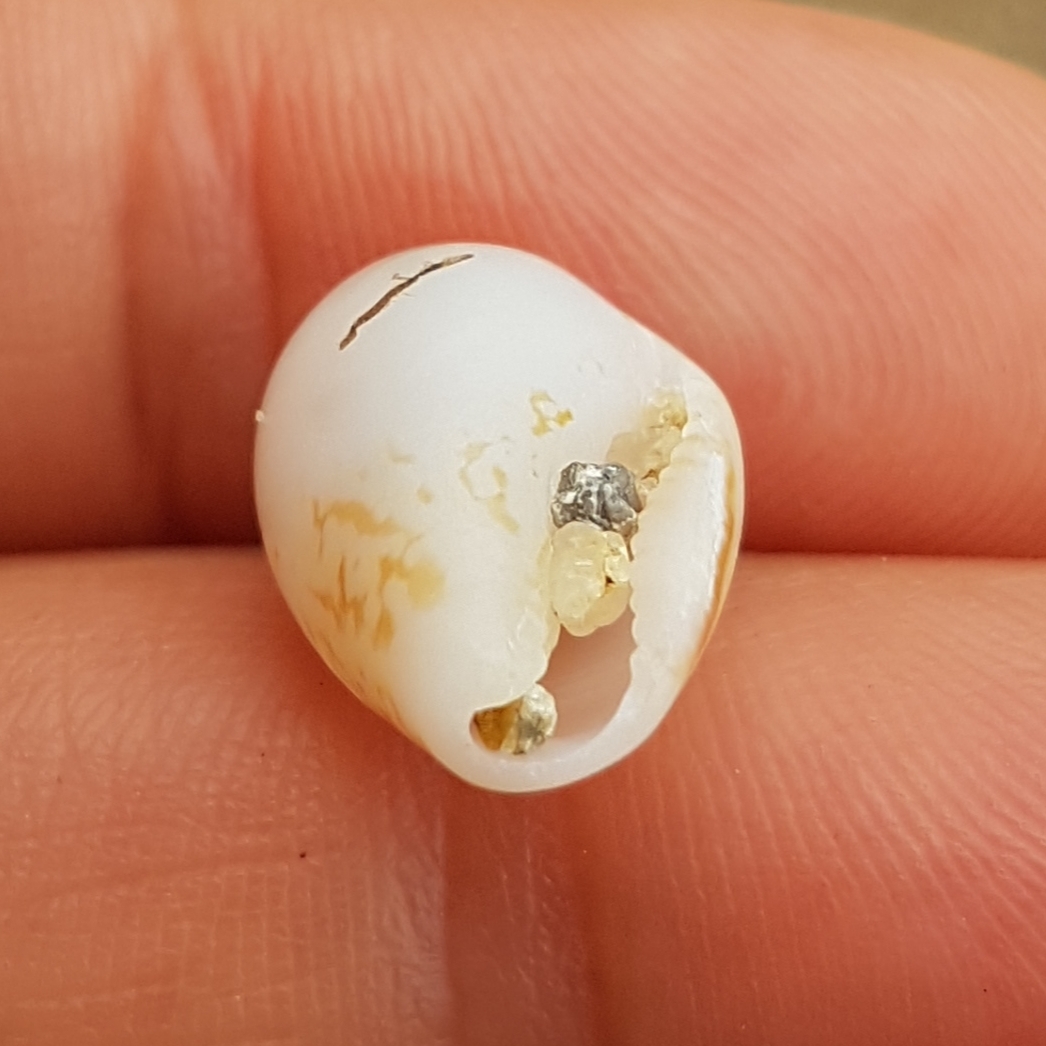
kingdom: Animalia
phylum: Mollusca
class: Gastropoda
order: Neogastropoda
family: Columbellidae
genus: Columbella
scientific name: Columbella rustica
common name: Rustic dove shell
